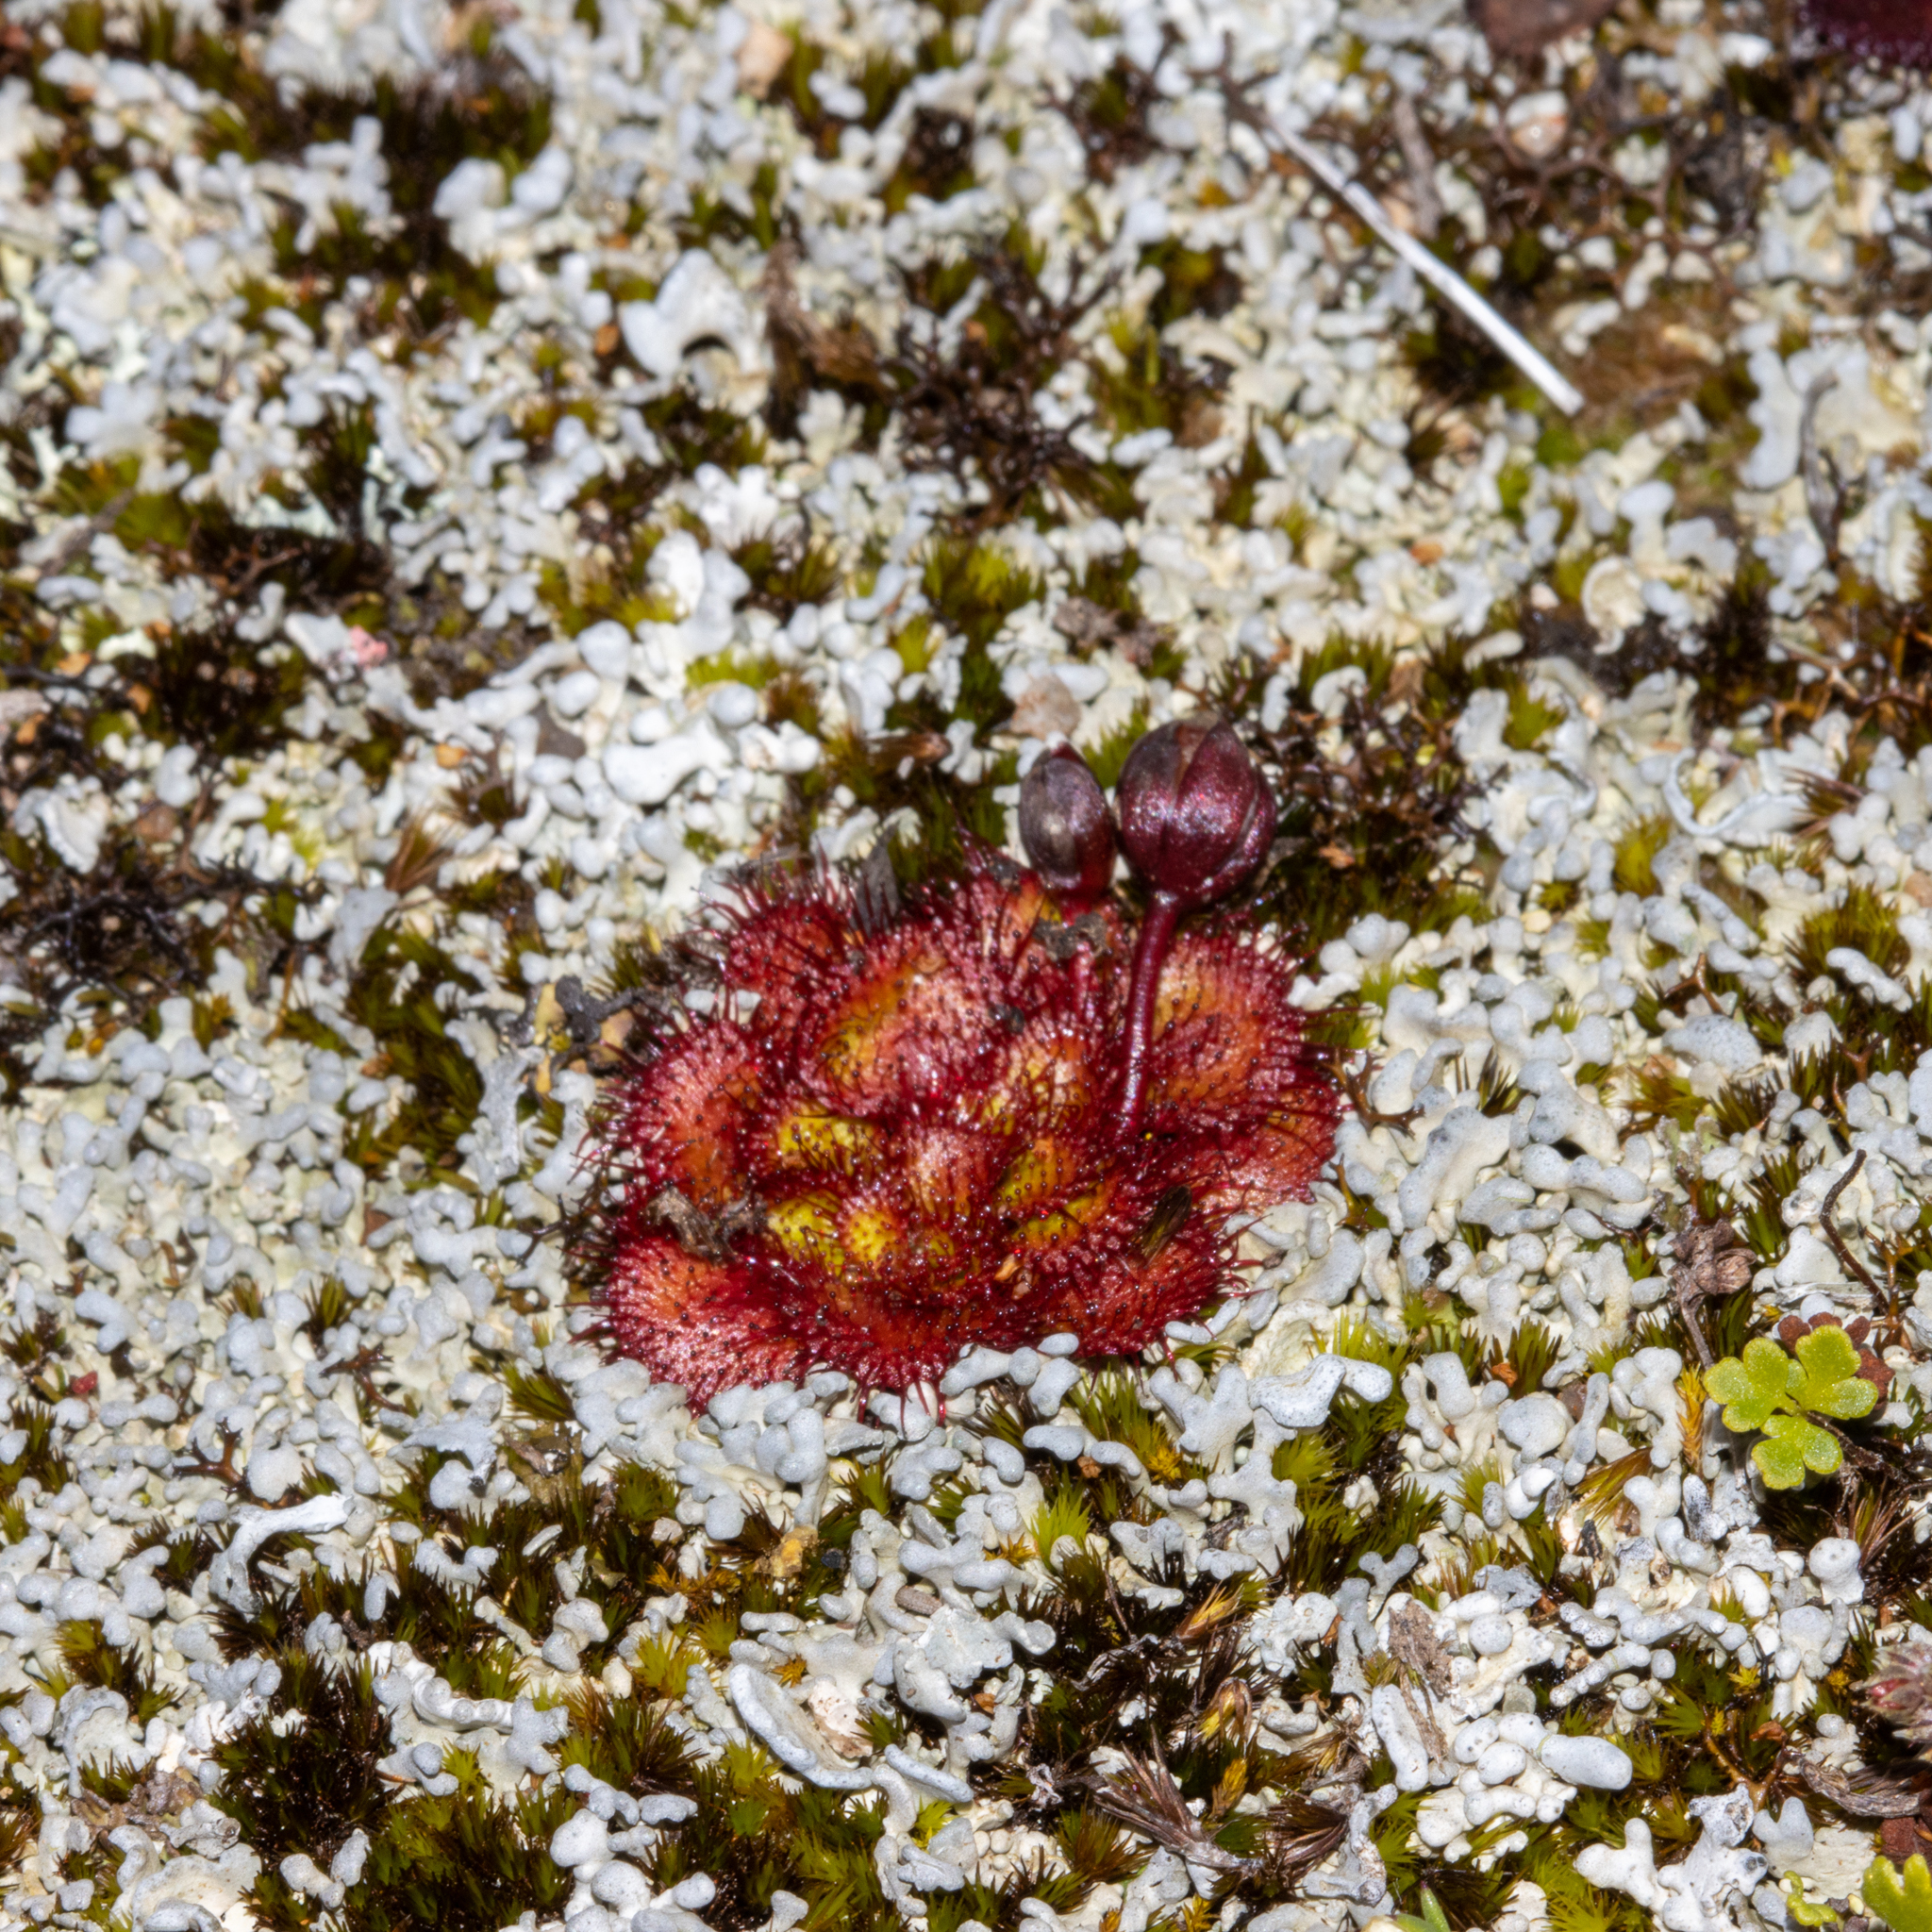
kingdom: Plantae
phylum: Tracheophyta
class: Magnoliopsida
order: Caryophyllales
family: Droseraceae
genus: Drosera
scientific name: Drosera lowriei
